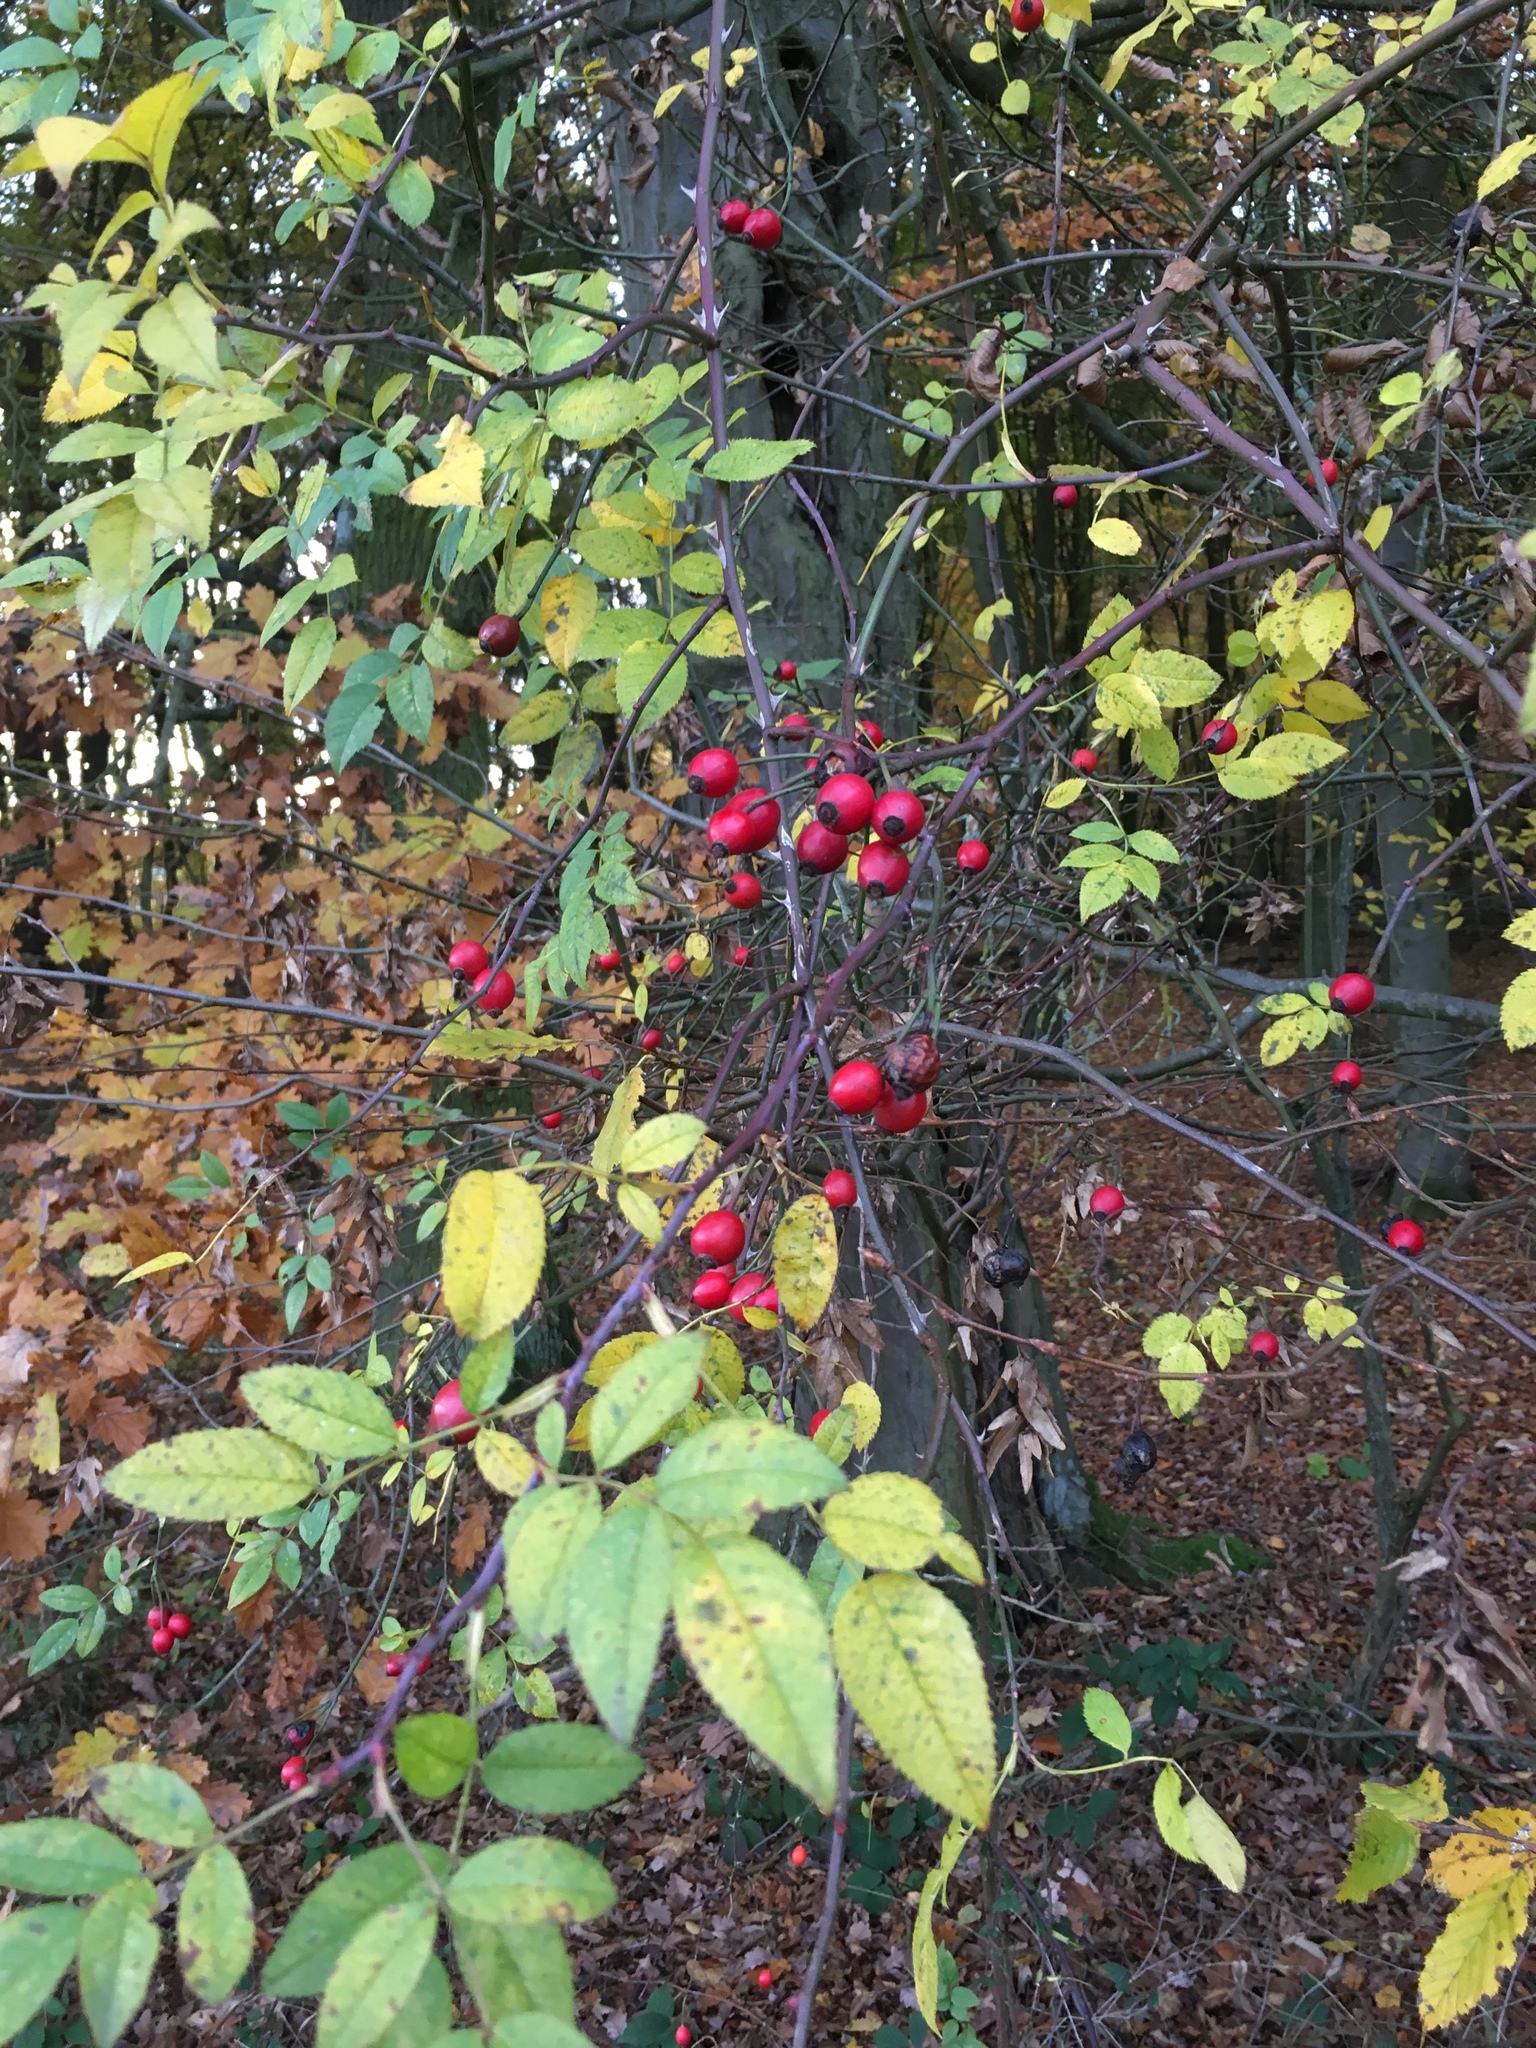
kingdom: Plantae
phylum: Tracheophyta
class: Magnoliopsida
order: Rosales
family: Rosaceae
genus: Rosa
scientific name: Rosa canina
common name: Dog rose
